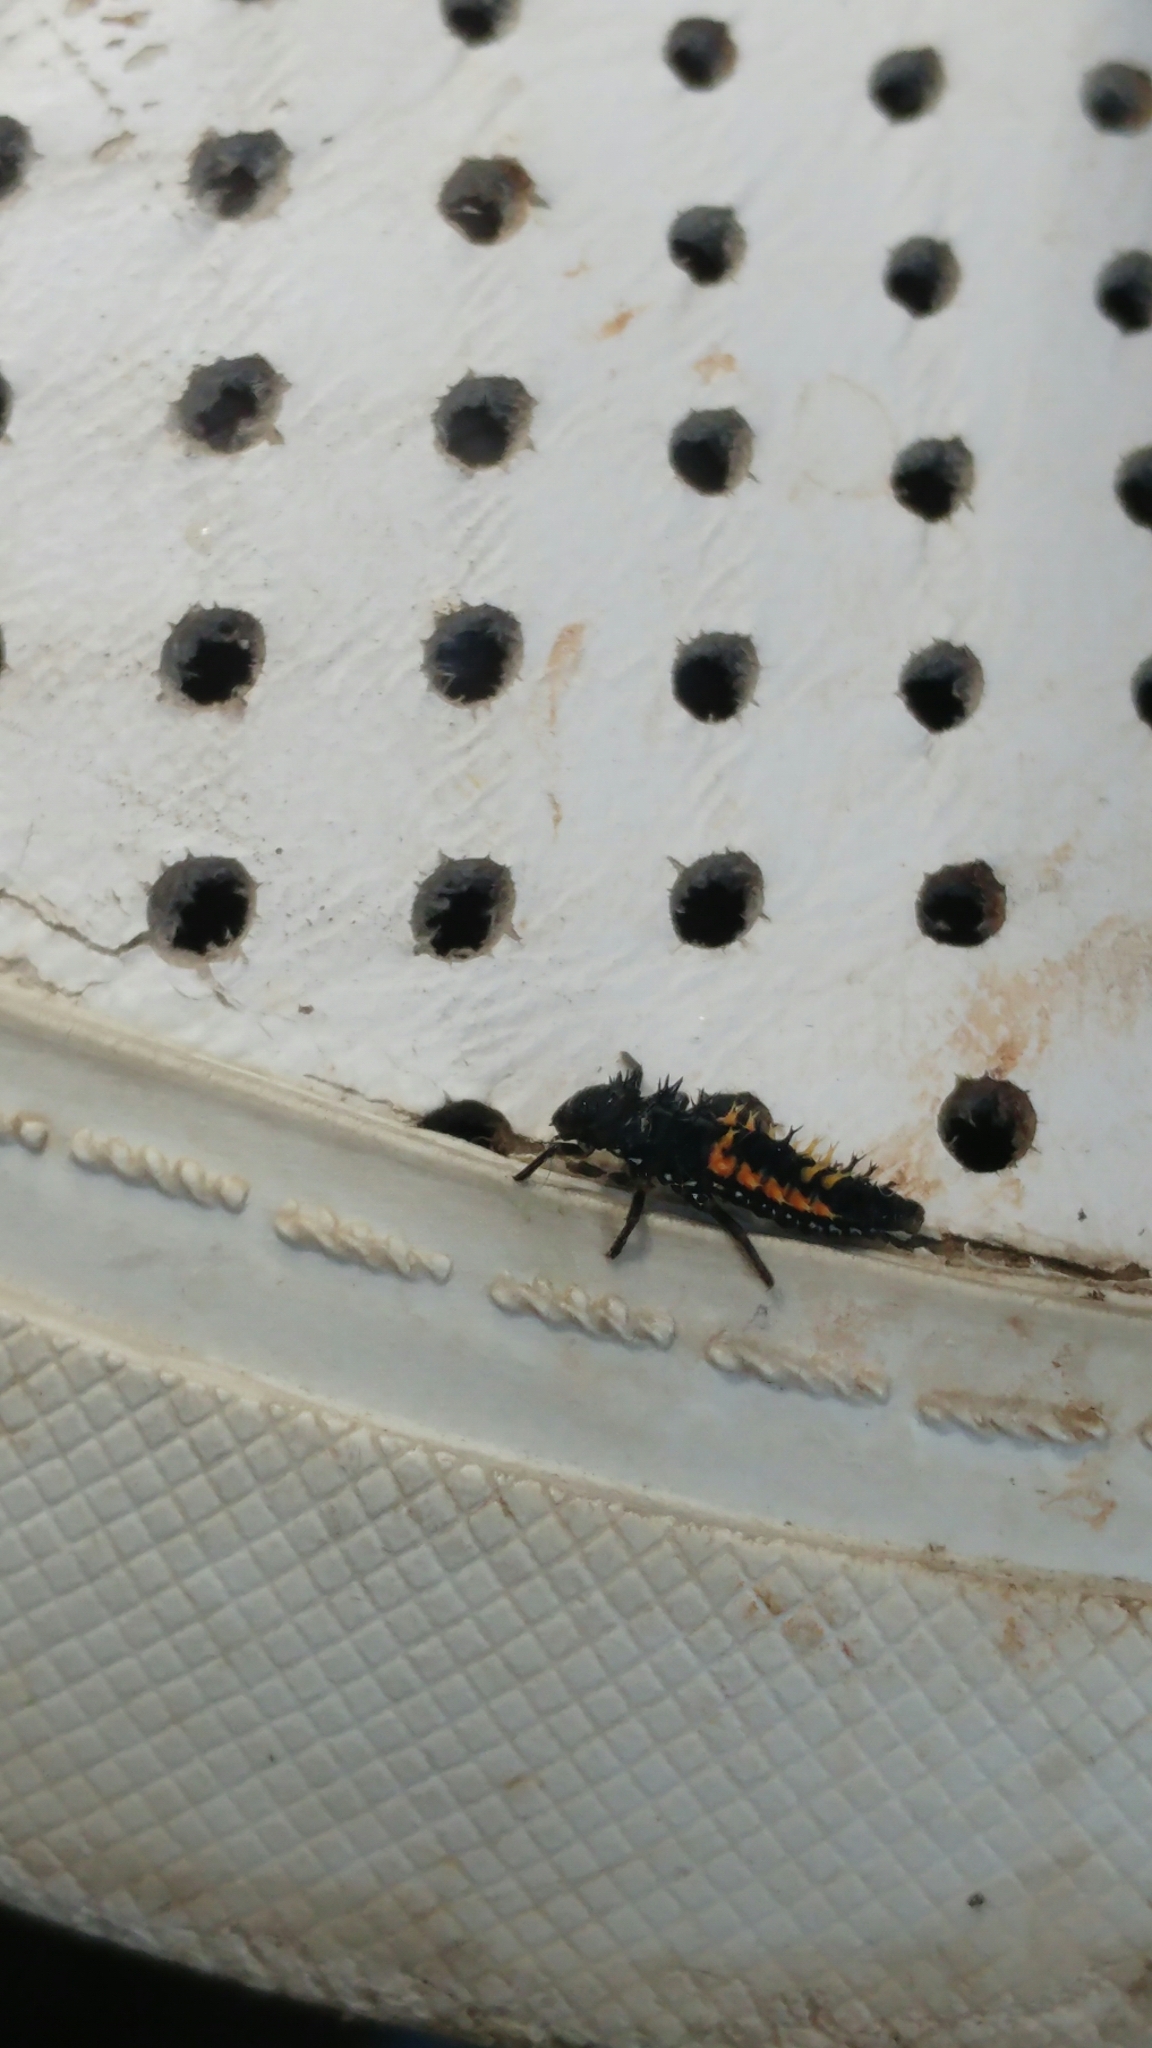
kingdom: Animalia
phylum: Arthropoda
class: Insecta
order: Coleoptera
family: Coccinellidae
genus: Harmonia
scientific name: Harmonia axyridis
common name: Harlequin ladybird
